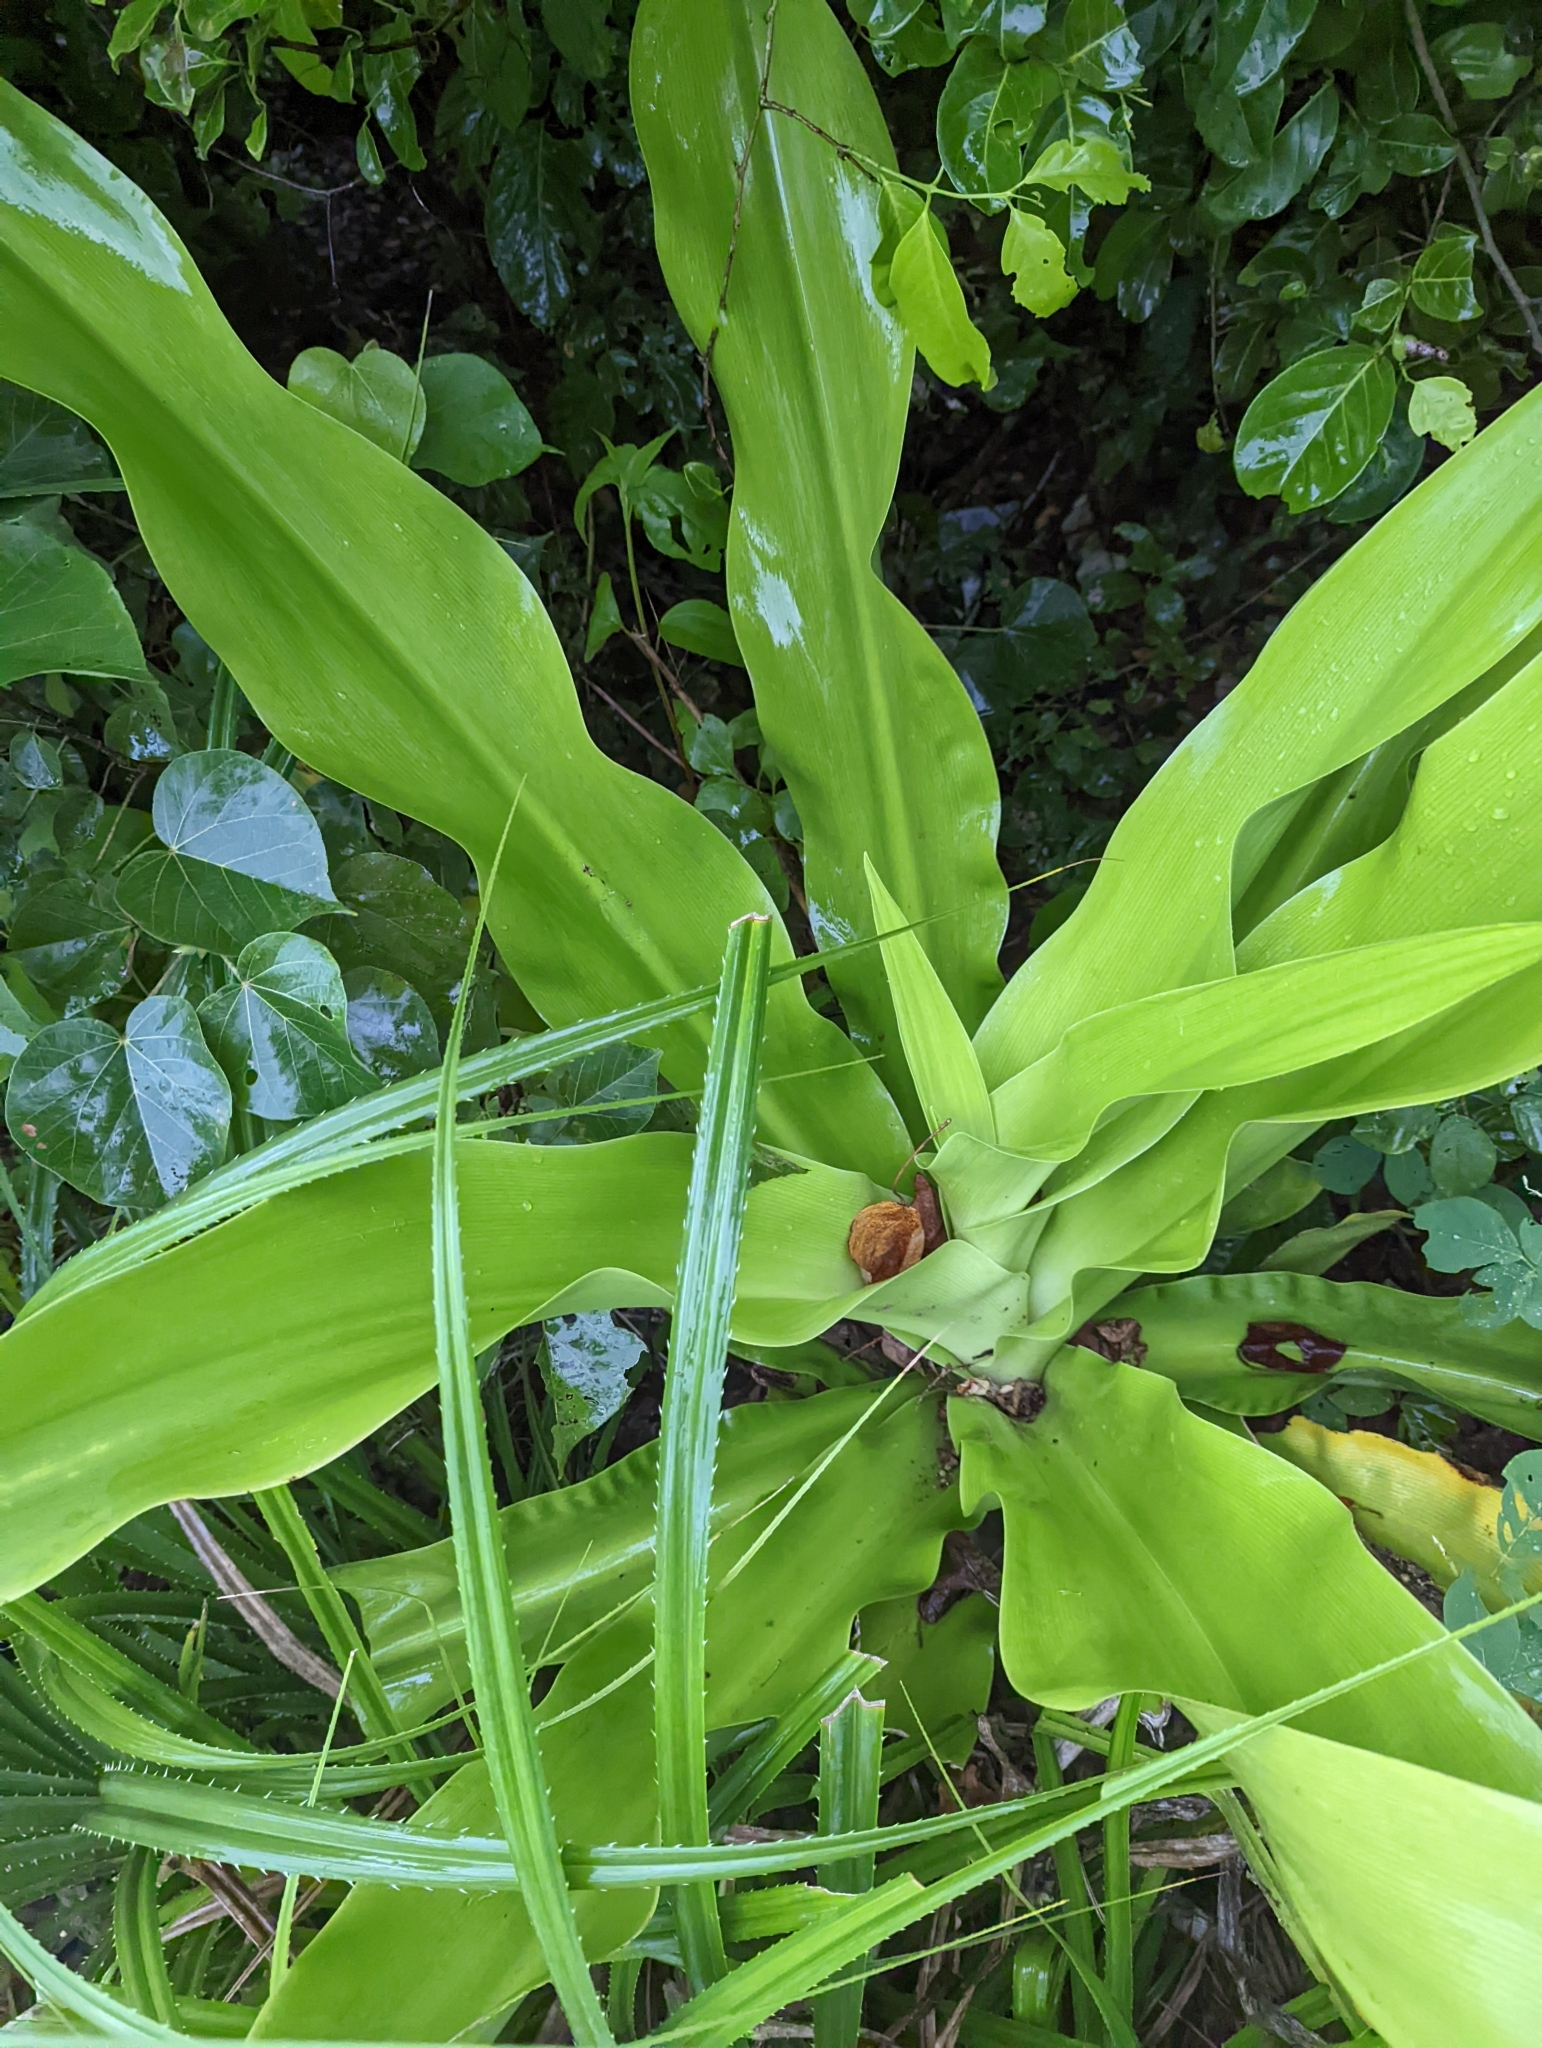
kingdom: Plantae
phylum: Tracheophyta
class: Liliopsida
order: Asparagales
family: Amaryllidaceae
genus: Crinum
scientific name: Crinum asiaticum
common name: Poisonbulb
